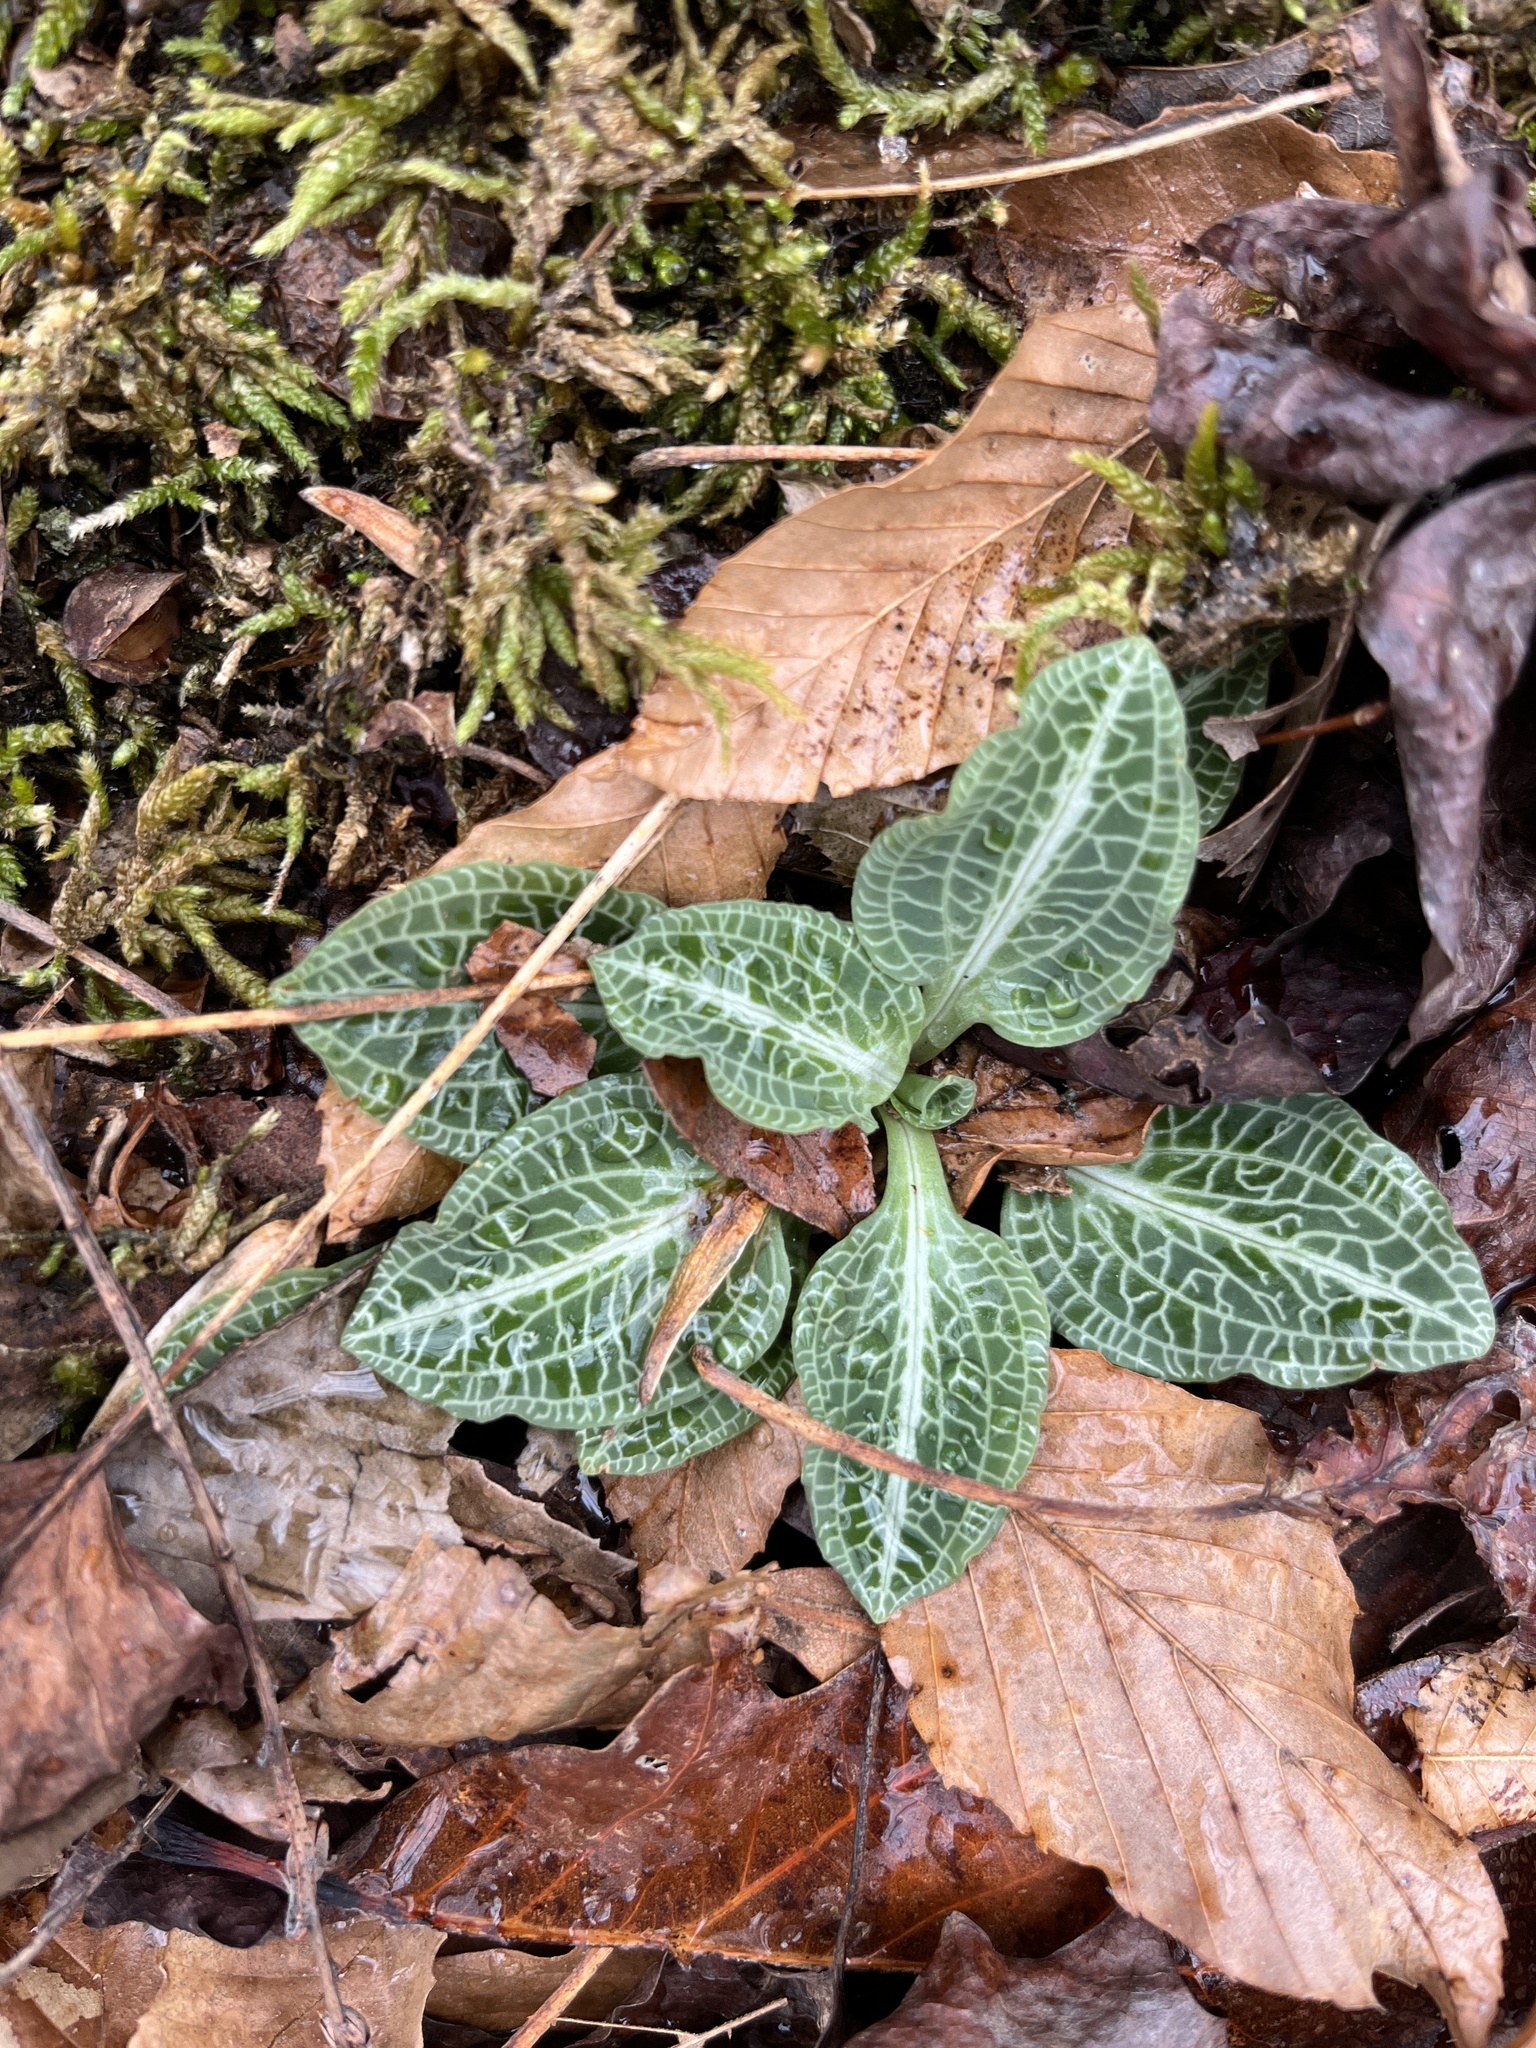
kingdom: Plantae
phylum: Tracheophyta
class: Liliopsida
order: Asparagales
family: Orchidaceae
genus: Goodyera
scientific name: Goodyera pubescens
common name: Downy rattlesnake-plantain
